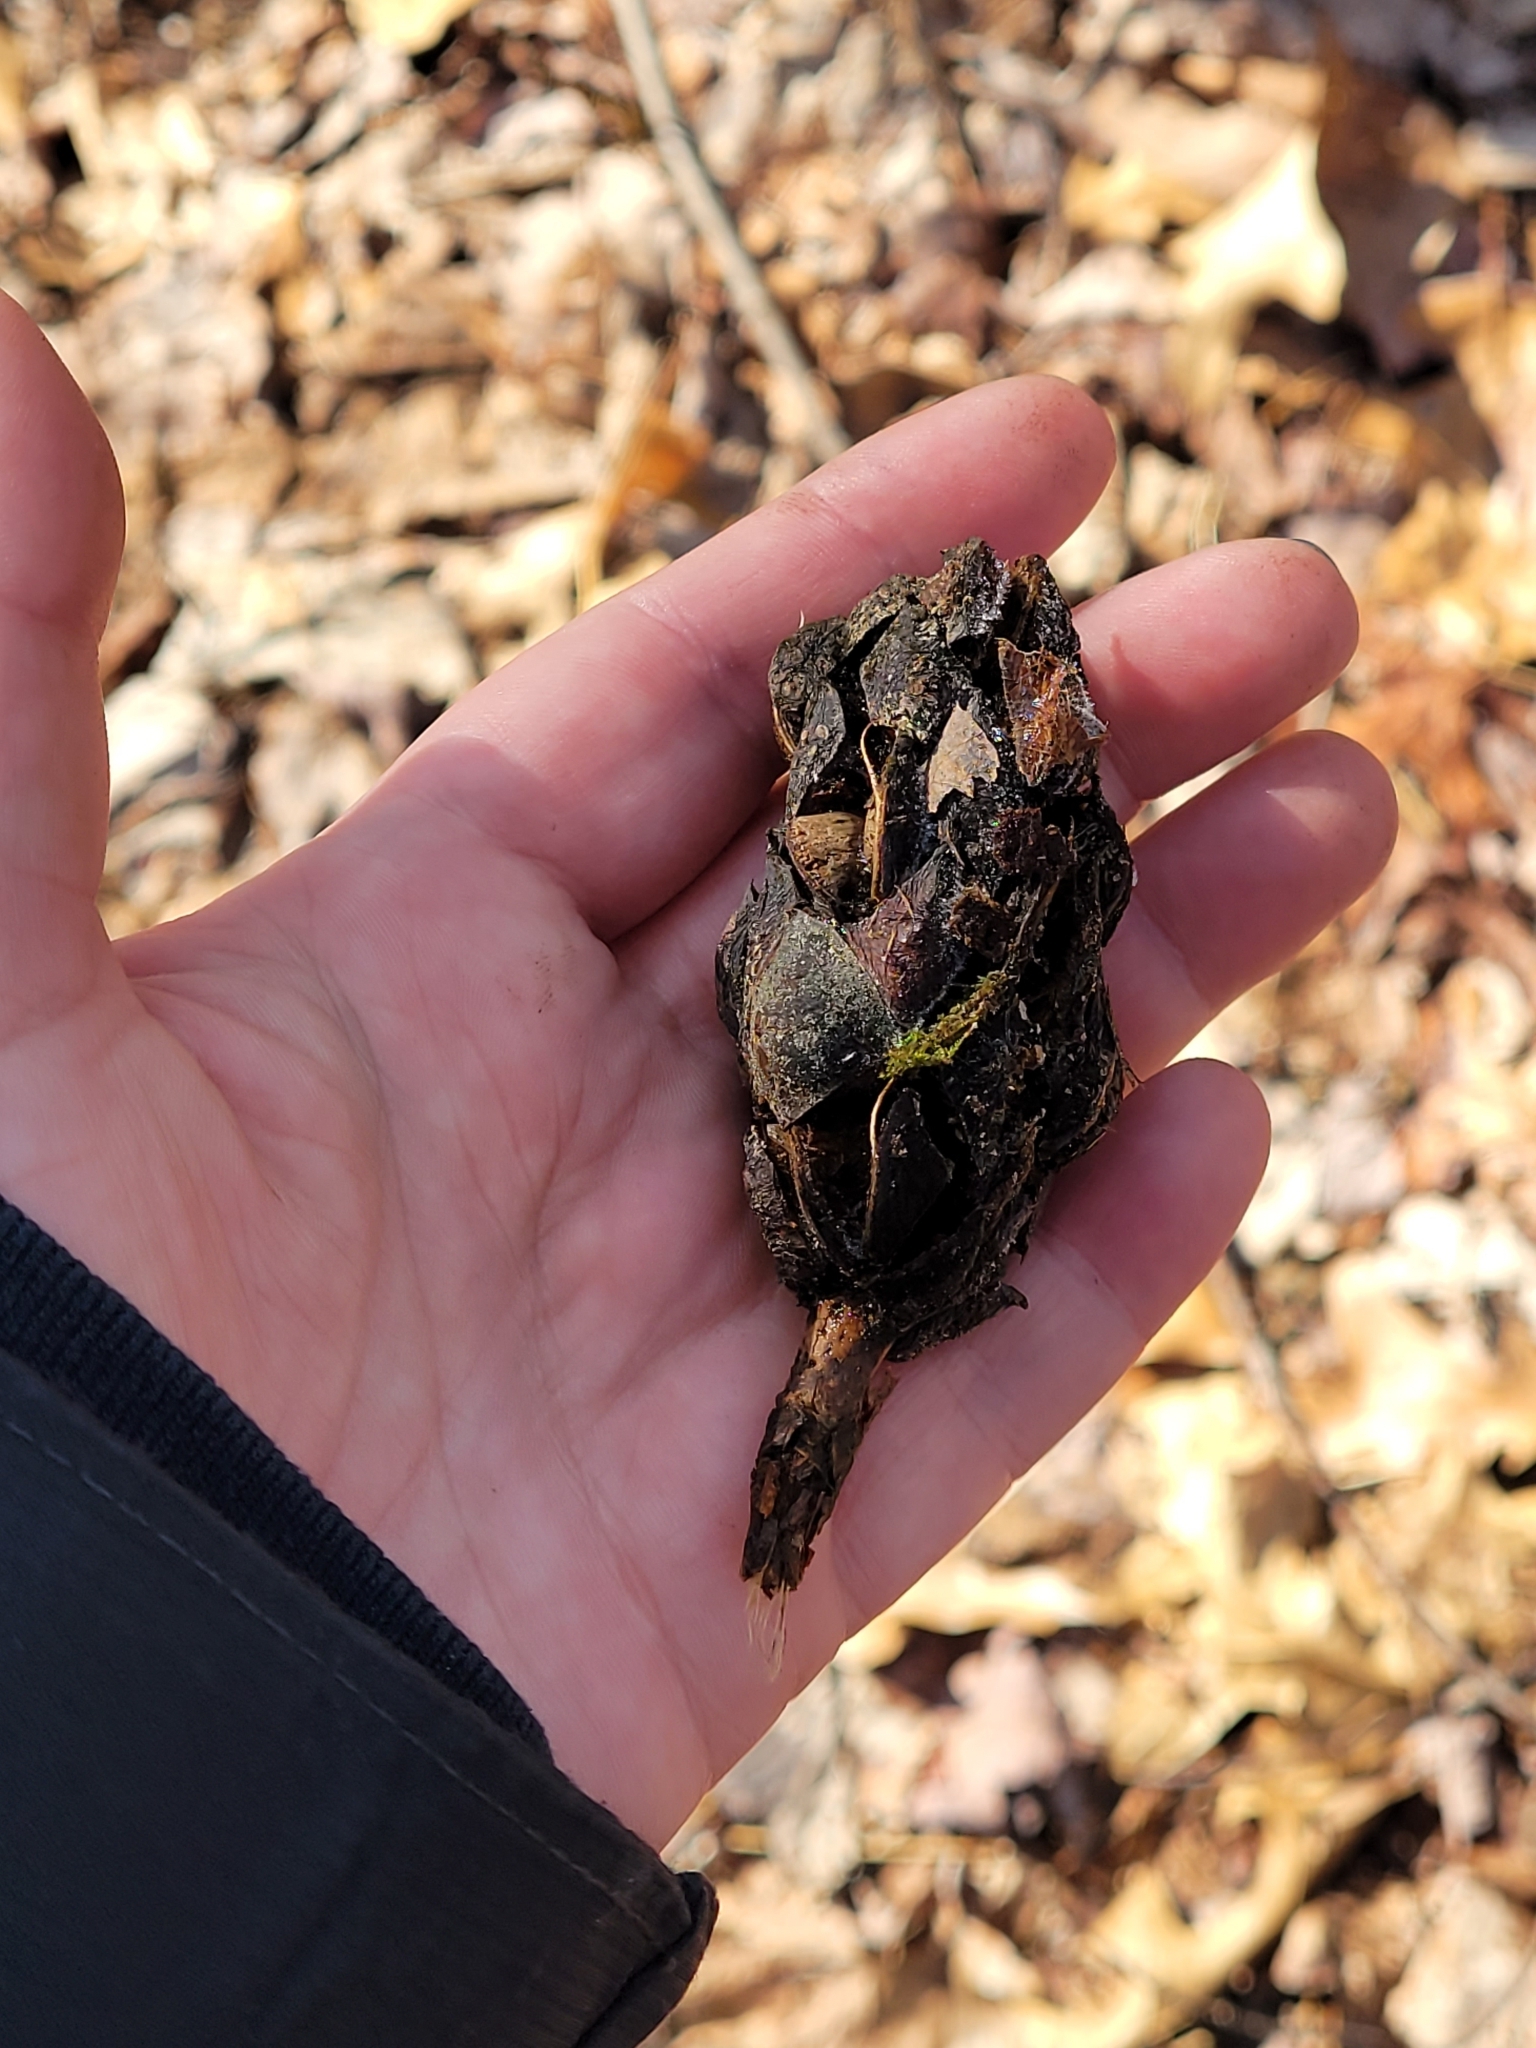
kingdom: Plantae
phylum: Tracheophyta
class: Magnoliopsida
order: Magnoliales
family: Magnoliaceae
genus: Magnolia
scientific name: Magnolia acuminata
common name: Cucumber magnolia
